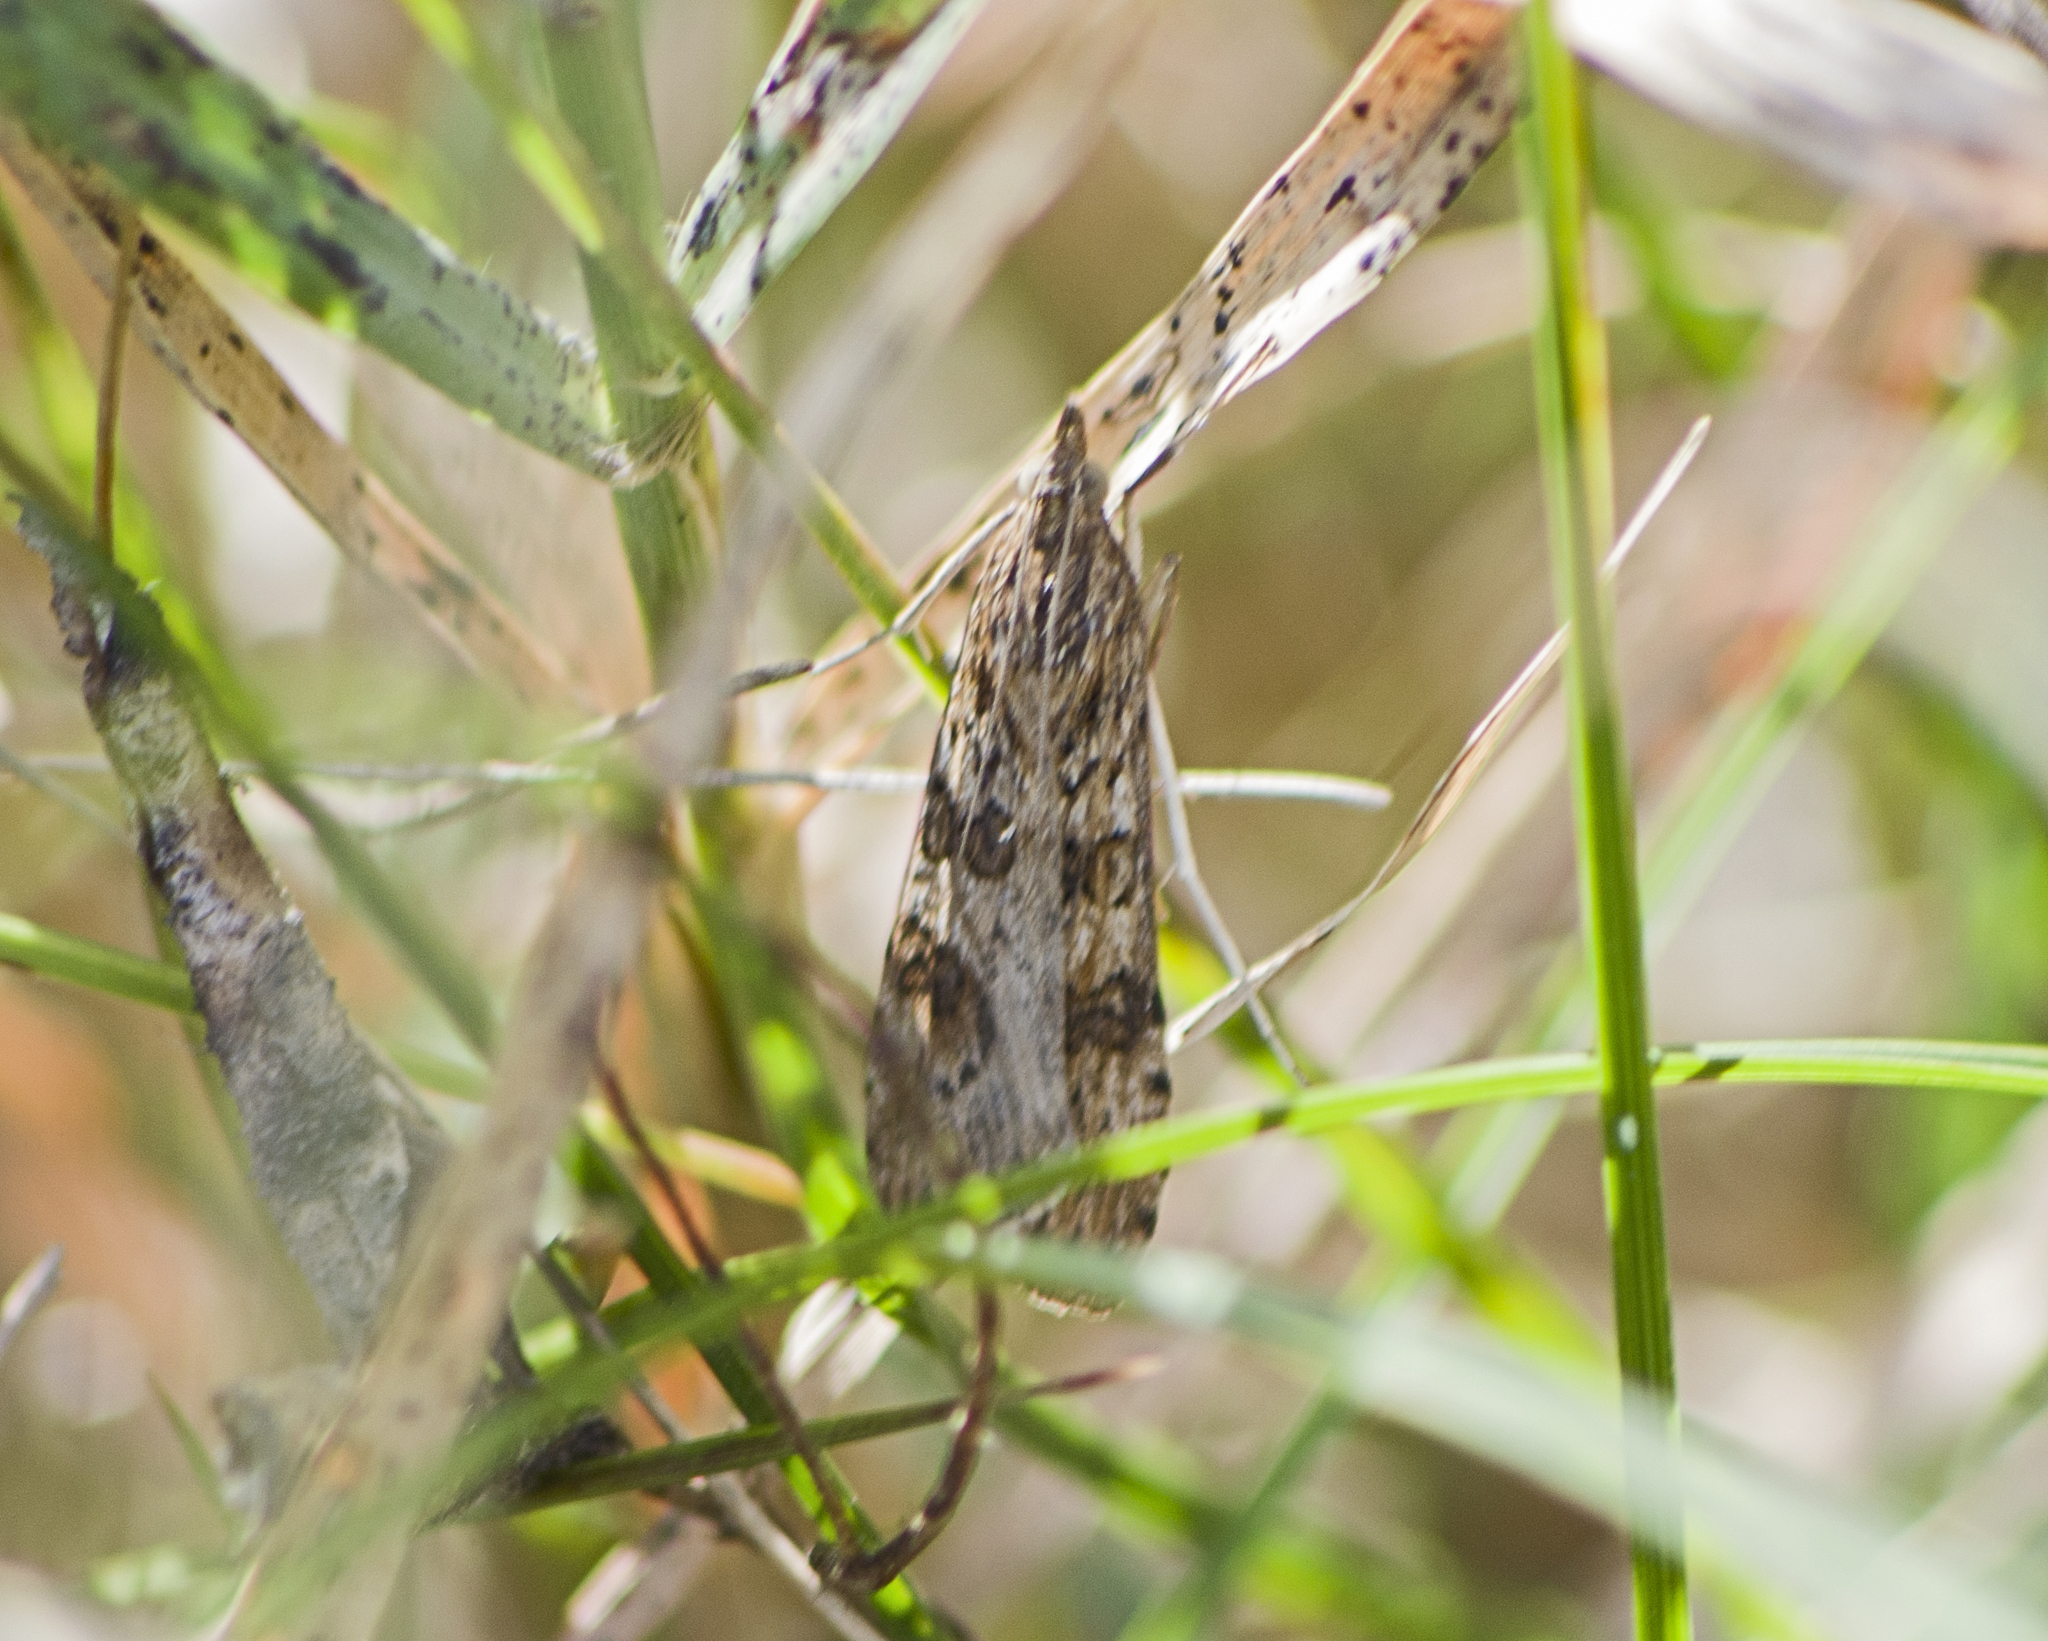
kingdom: Animalia
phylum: Arthropoda
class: Insecta
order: Lepidoptera
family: Crambidae
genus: Nomophila
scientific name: Nomophila noctuella
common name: Rush veneer
